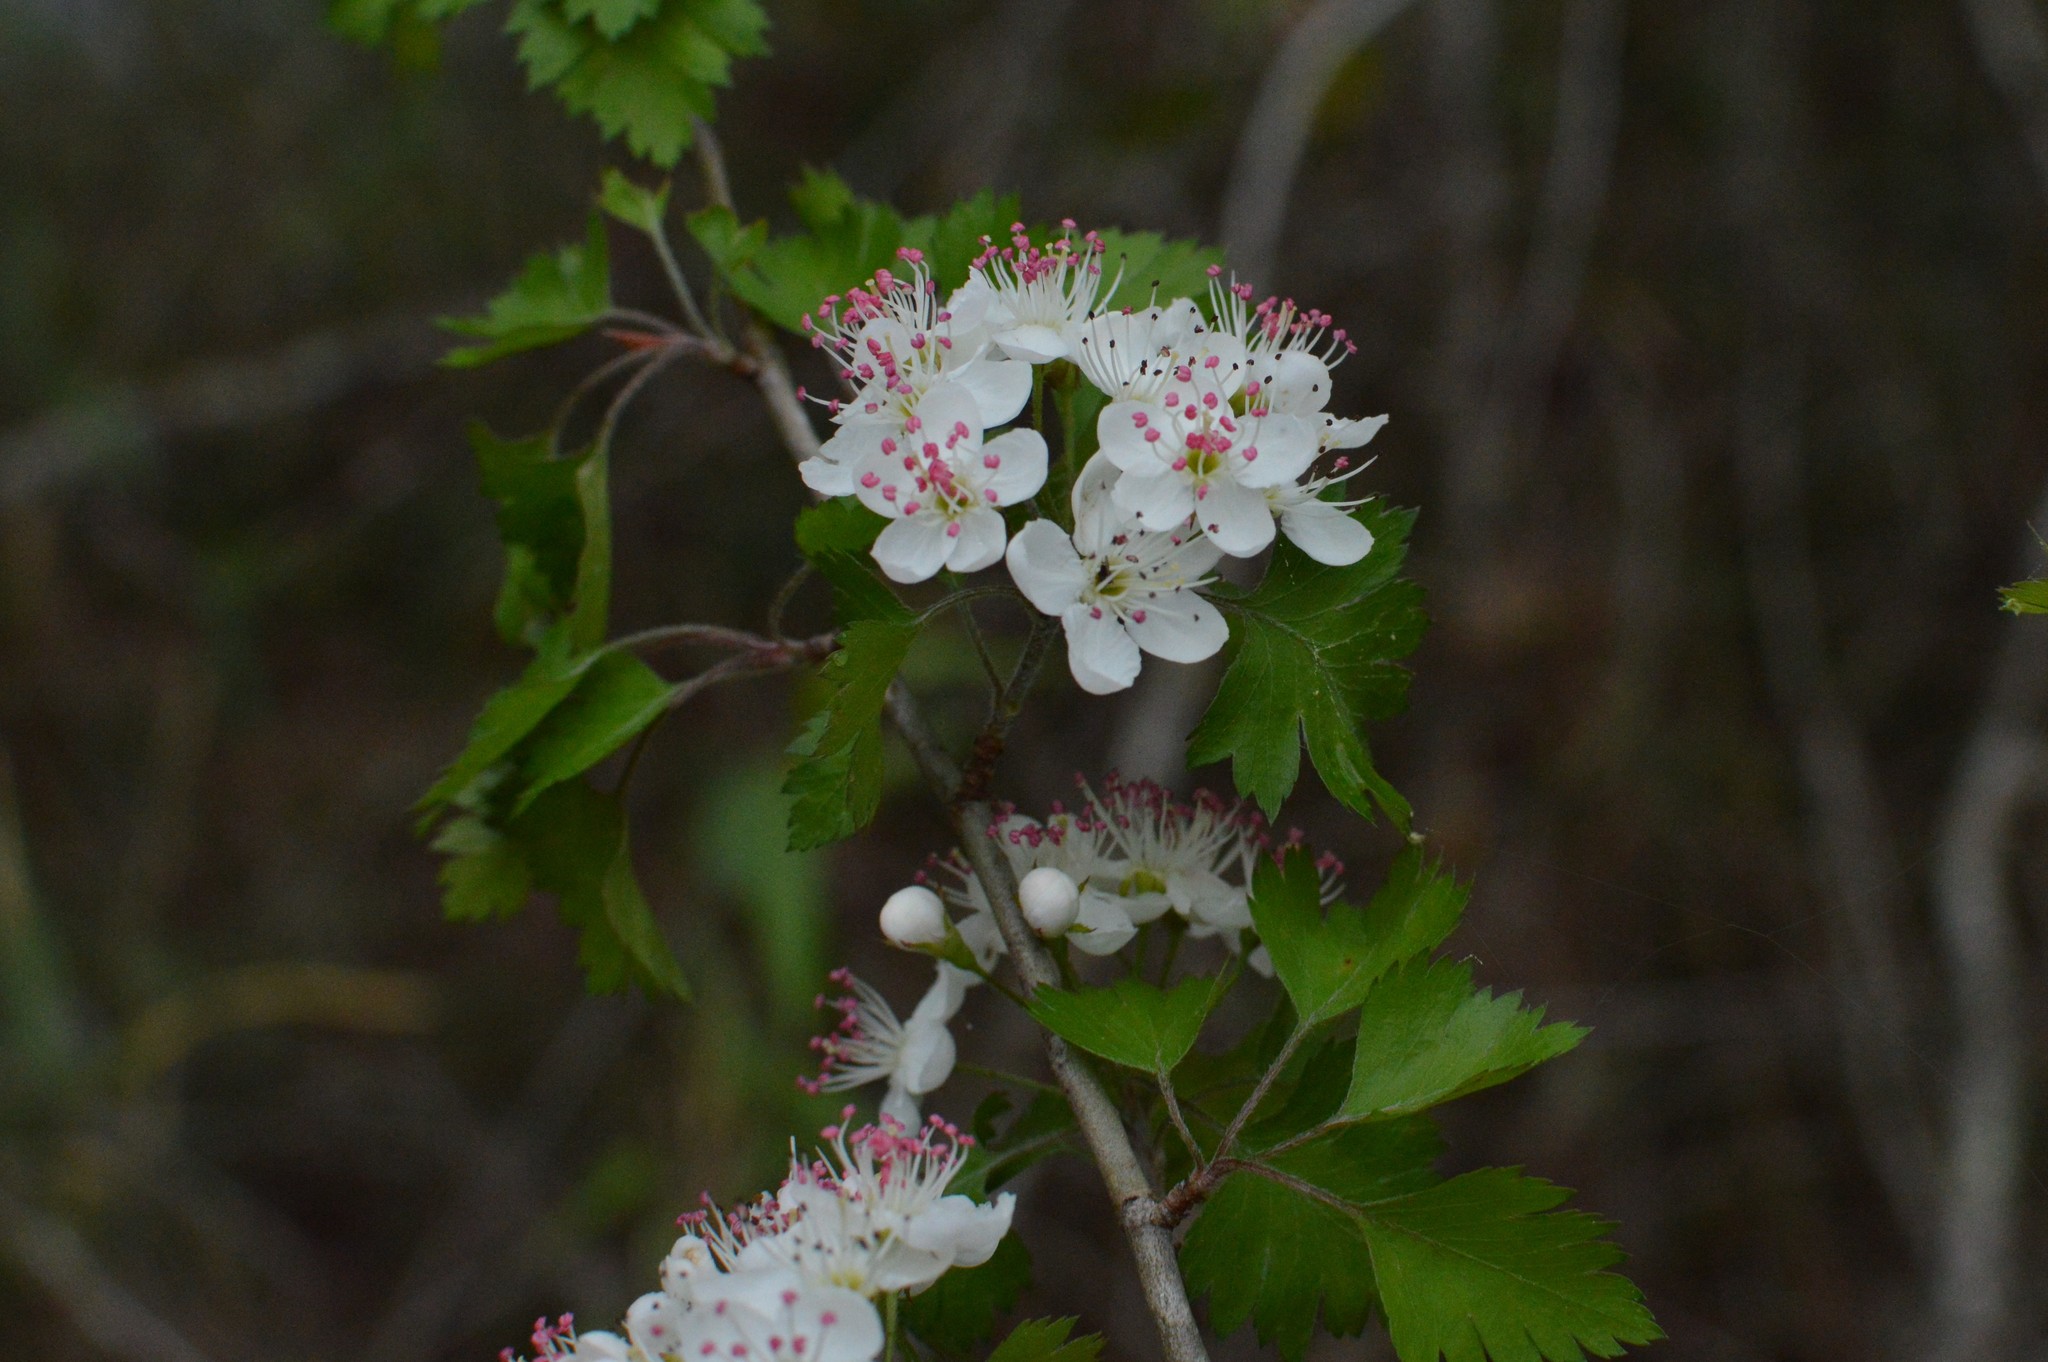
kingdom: Plantae
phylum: Tracheophyta
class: Magnoliopsida
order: Rosales
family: Rosaceae
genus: Crataegus
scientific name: Crataegus marshallii
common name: Parsley-hawthorn
